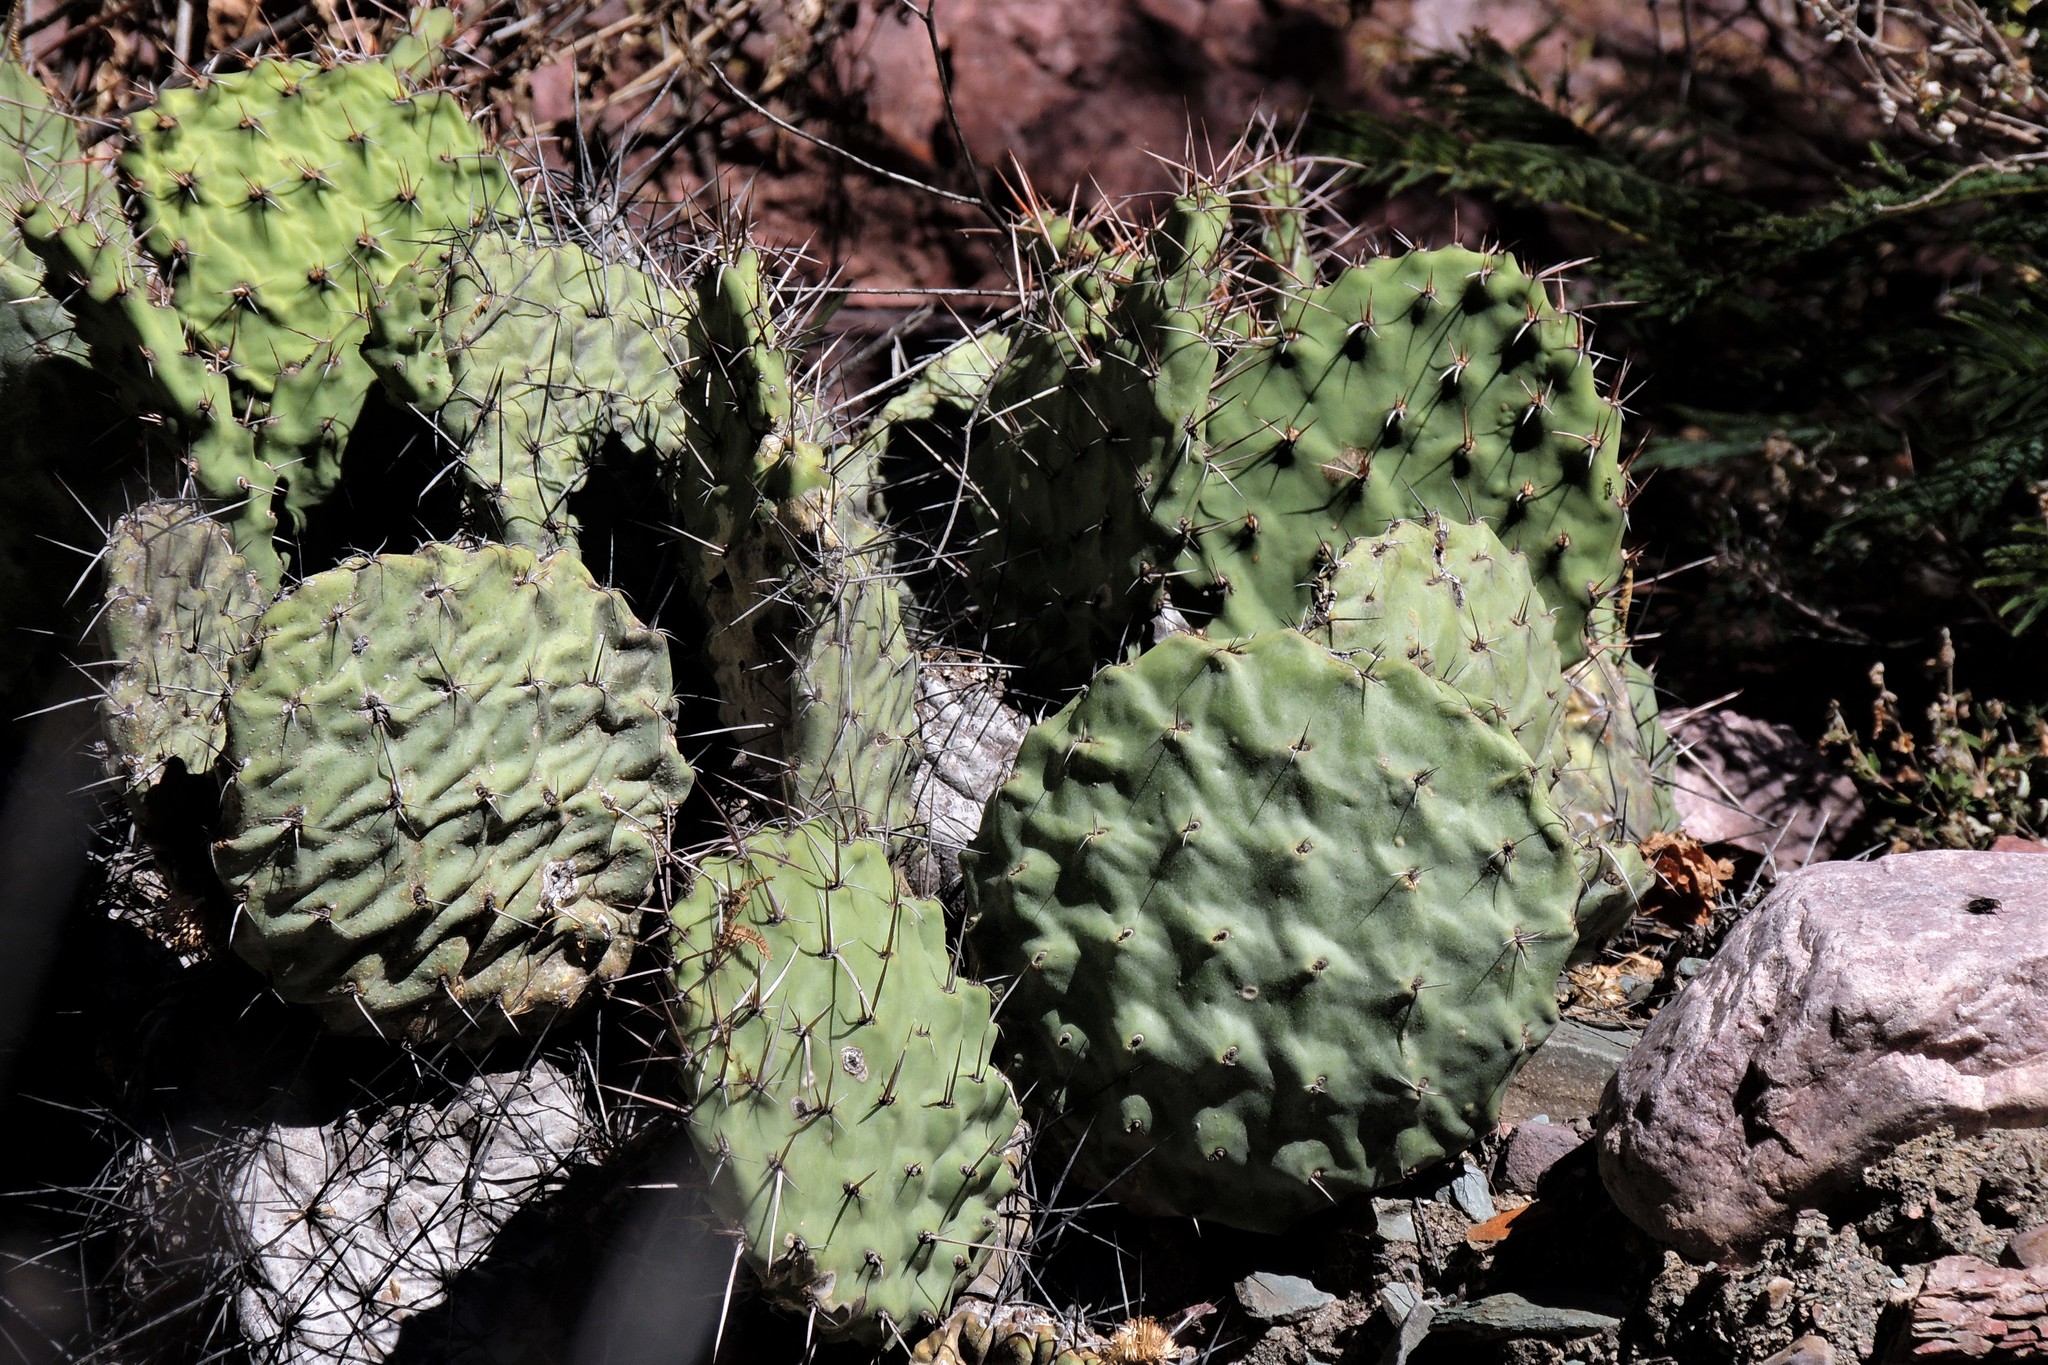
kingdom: Plantae
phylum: Tracheophyta
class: Magnoliopsida
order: Caryophyllales
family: Cactaceae
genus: Opuntia
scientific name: Opuntia sulphurea
